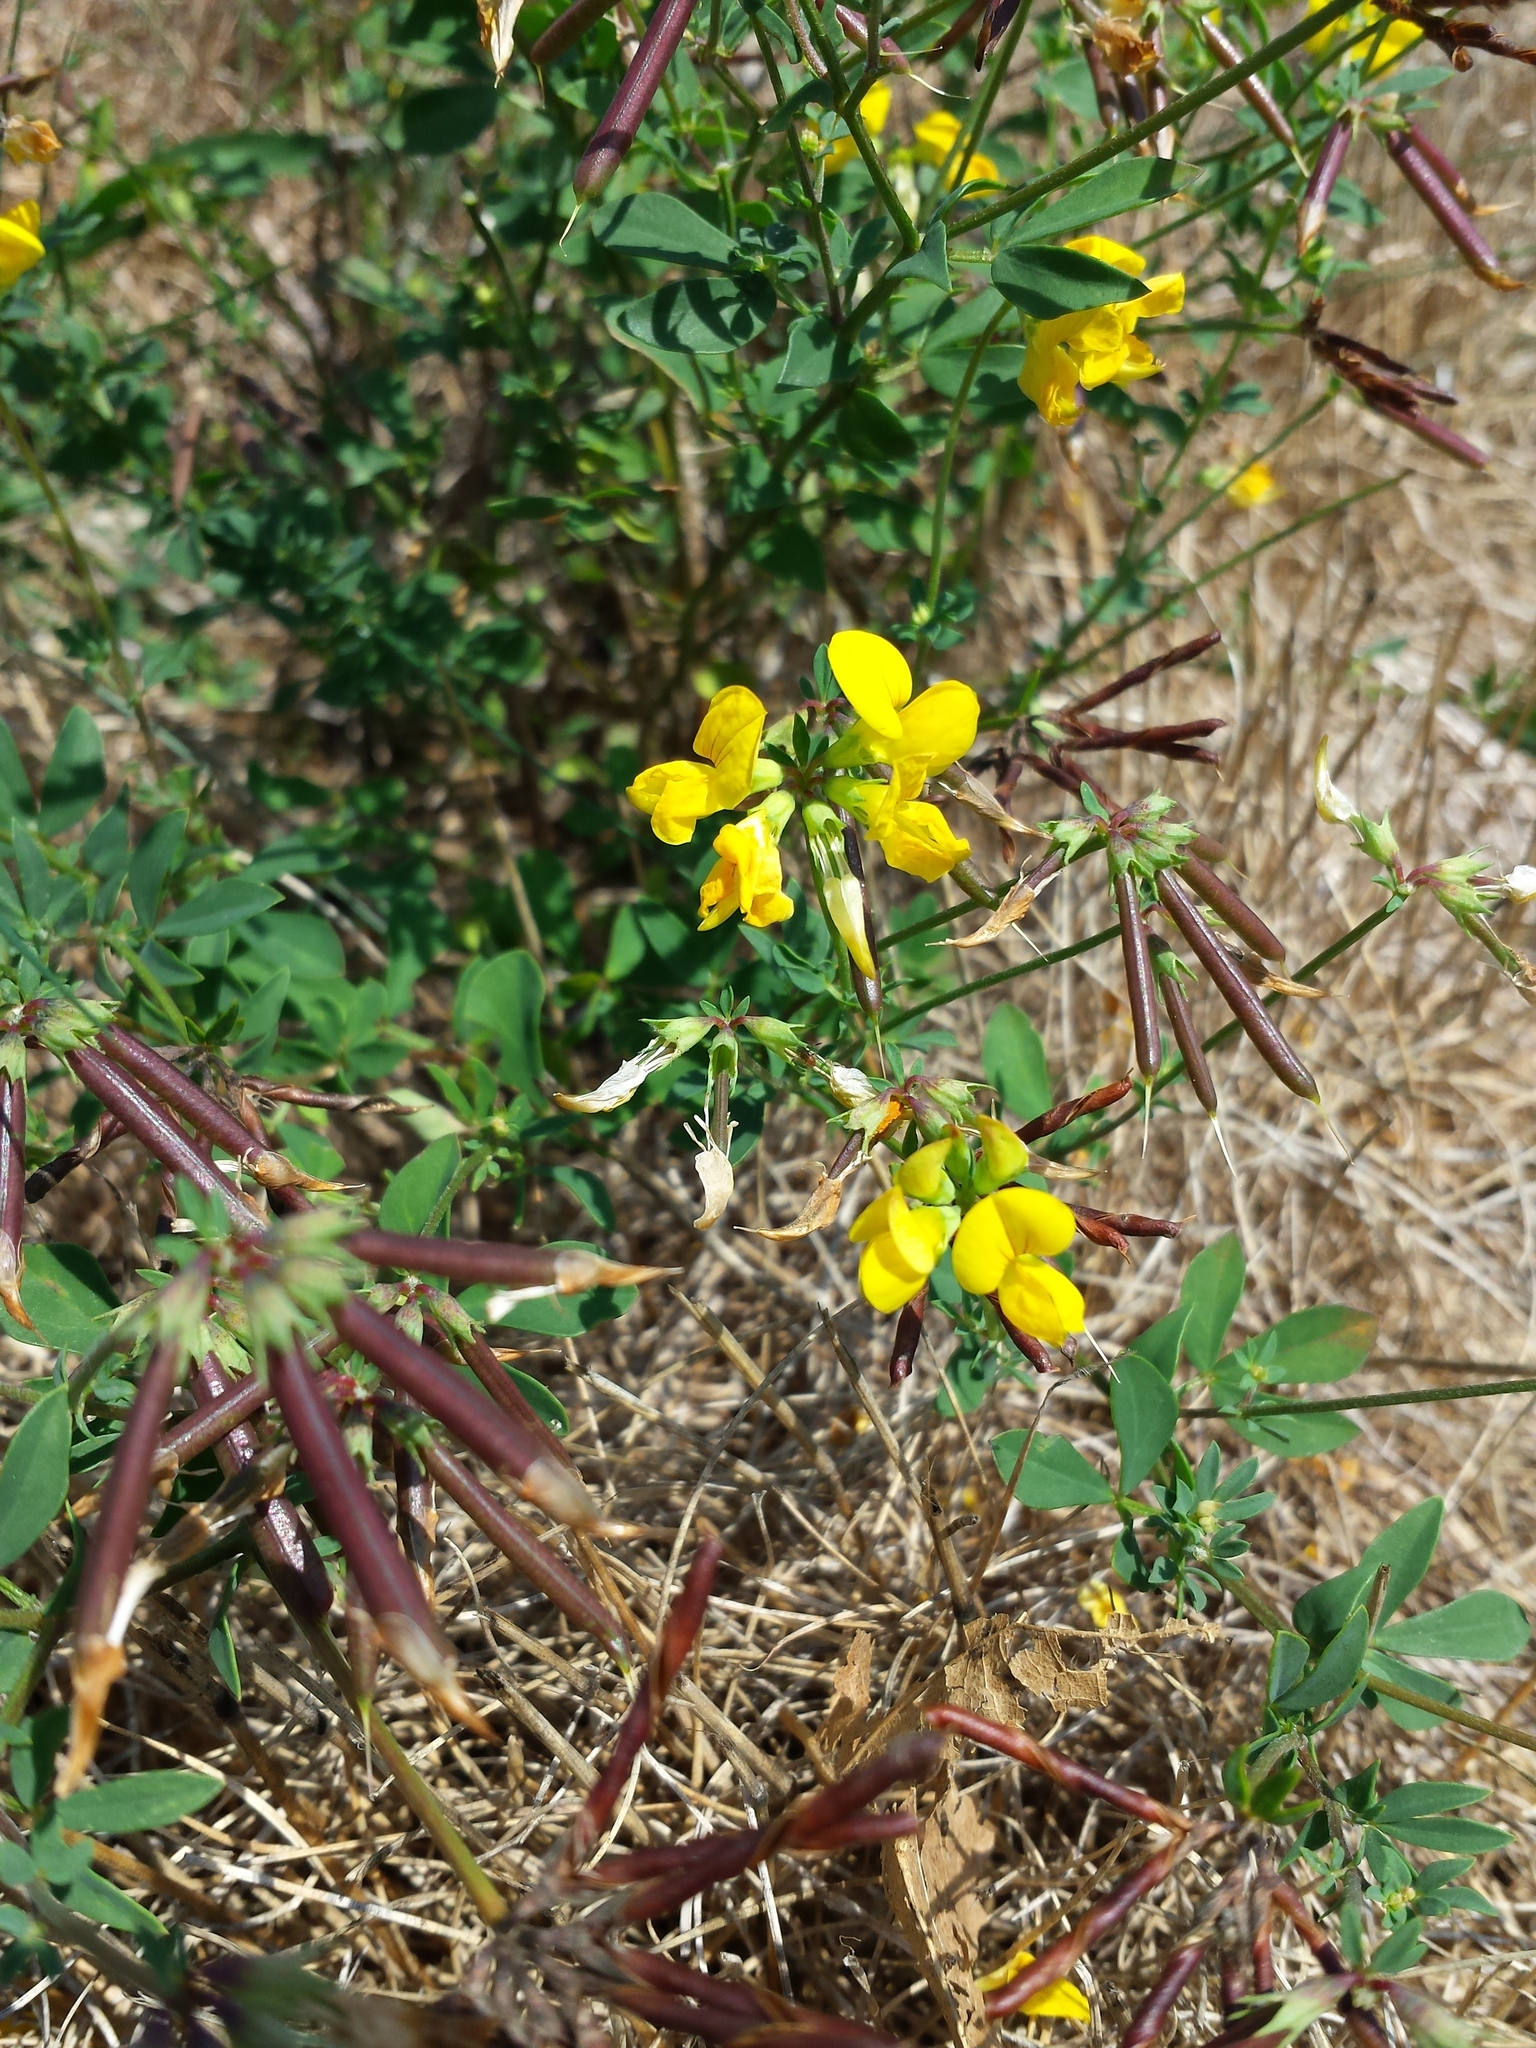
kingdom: Plantae
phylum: Tracheophyta
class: Magnoliopsida
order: Fabales
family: Fabaceae
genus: Lotus
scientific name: Lotus corniculatus
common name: Common bird's-foot-trefoil
